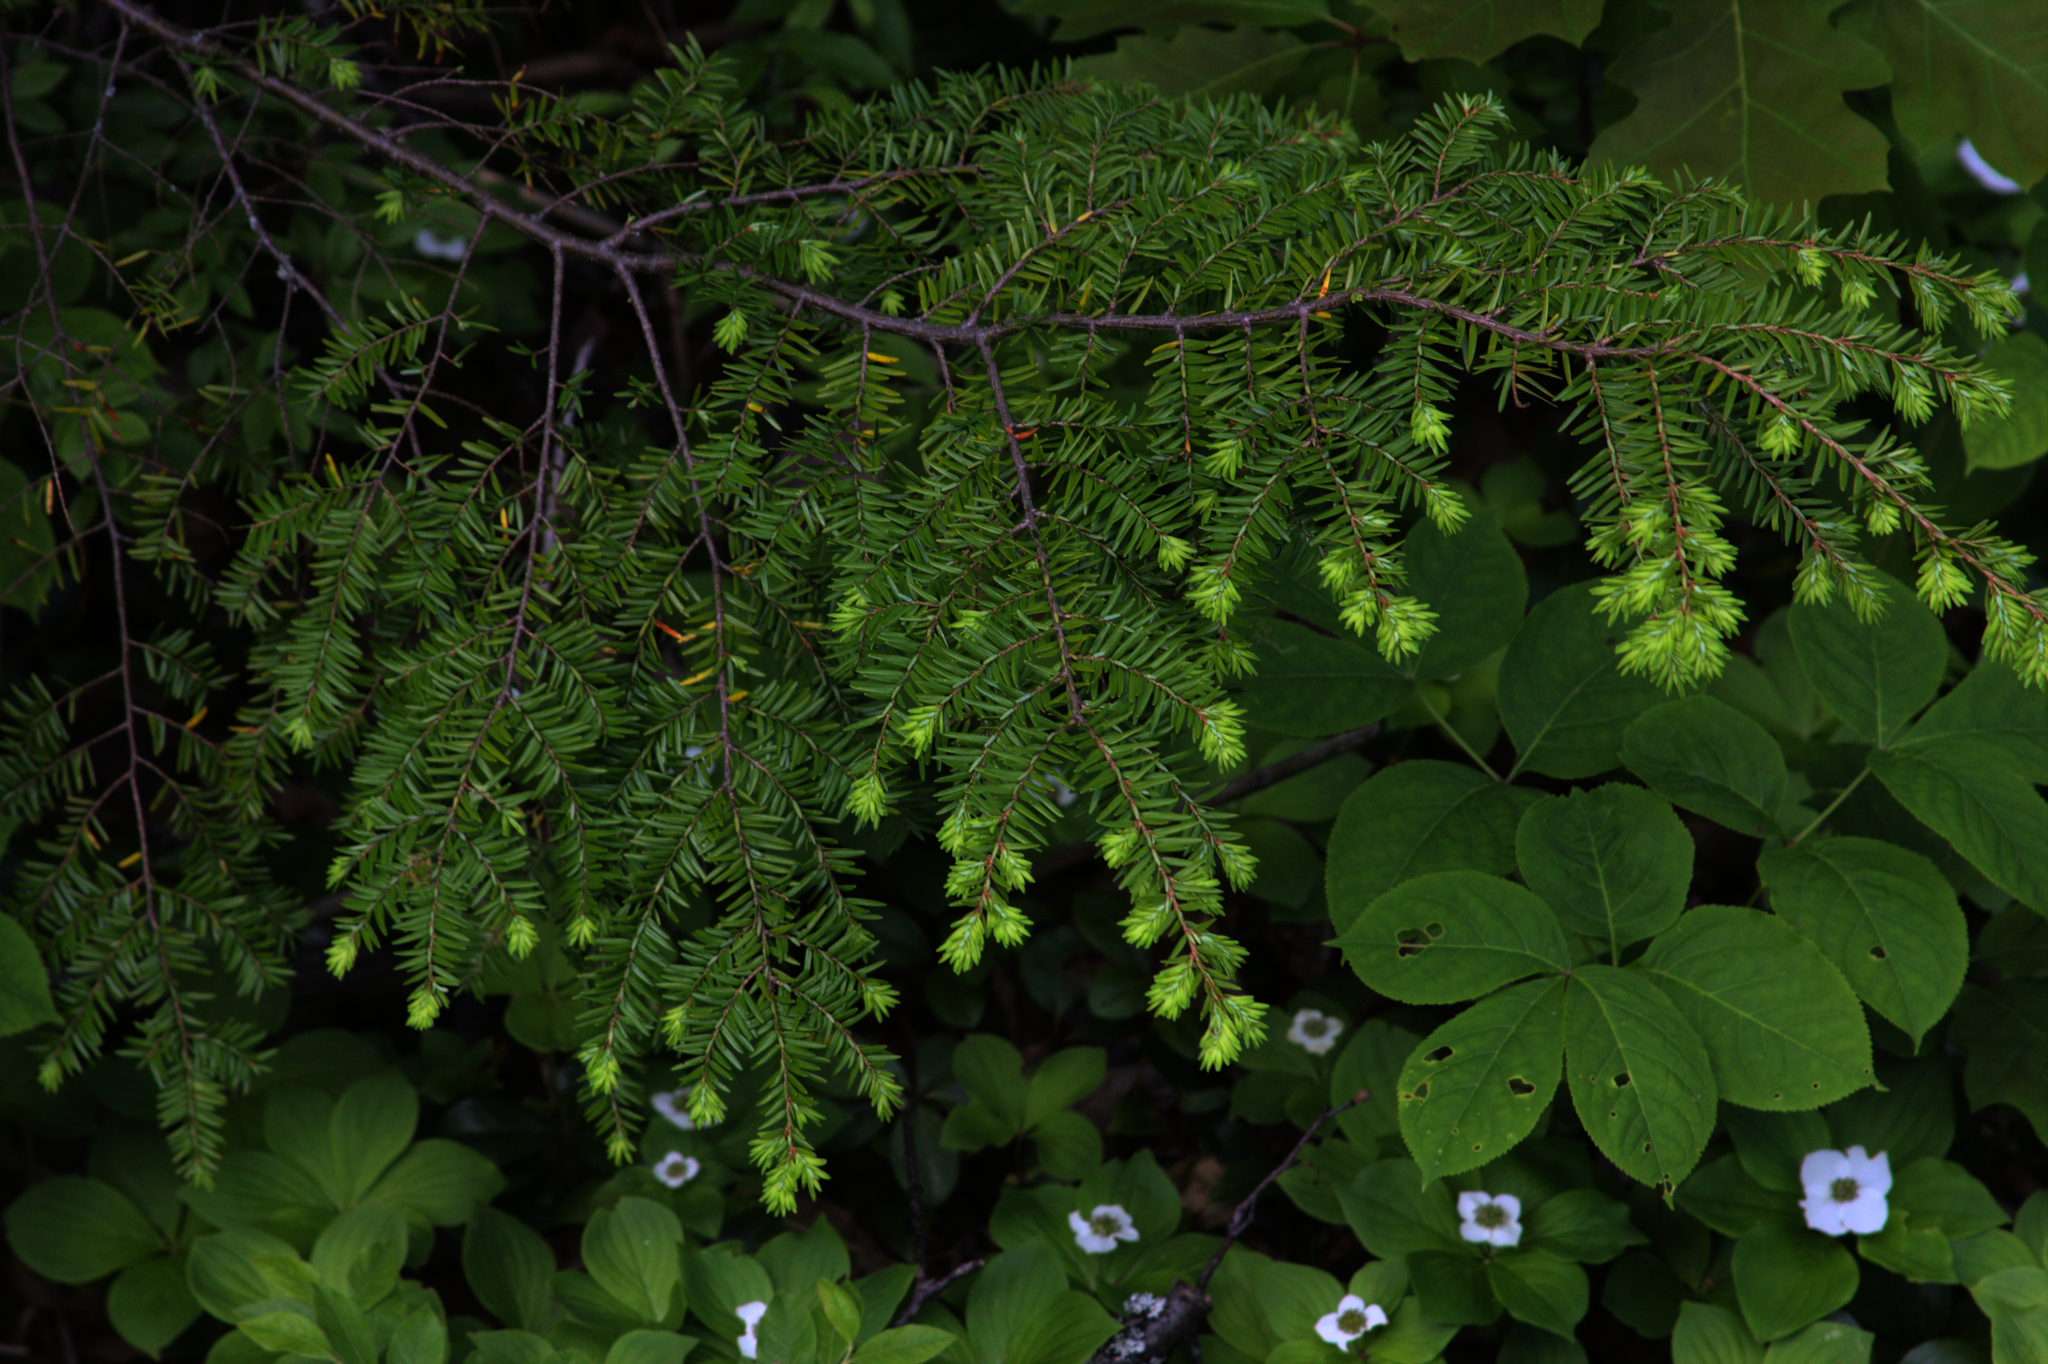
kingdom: Plantae
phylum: Tracheophyta
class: Pinopsida
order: Pinales
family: Pinaceae
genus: Tsuga
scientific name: Tsuga canadensis
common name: Eastern hemlock
